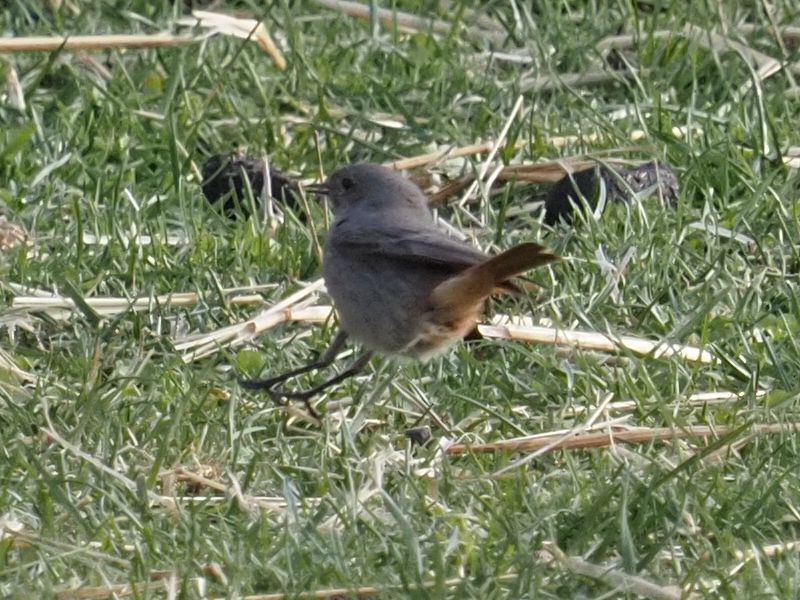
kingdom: Animalia
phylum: Chordata
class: Aves
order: Passeriformes
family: Muscicapidae
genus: Phoenicurus
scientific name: Phoenicurus ochruros
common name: Black redstart
